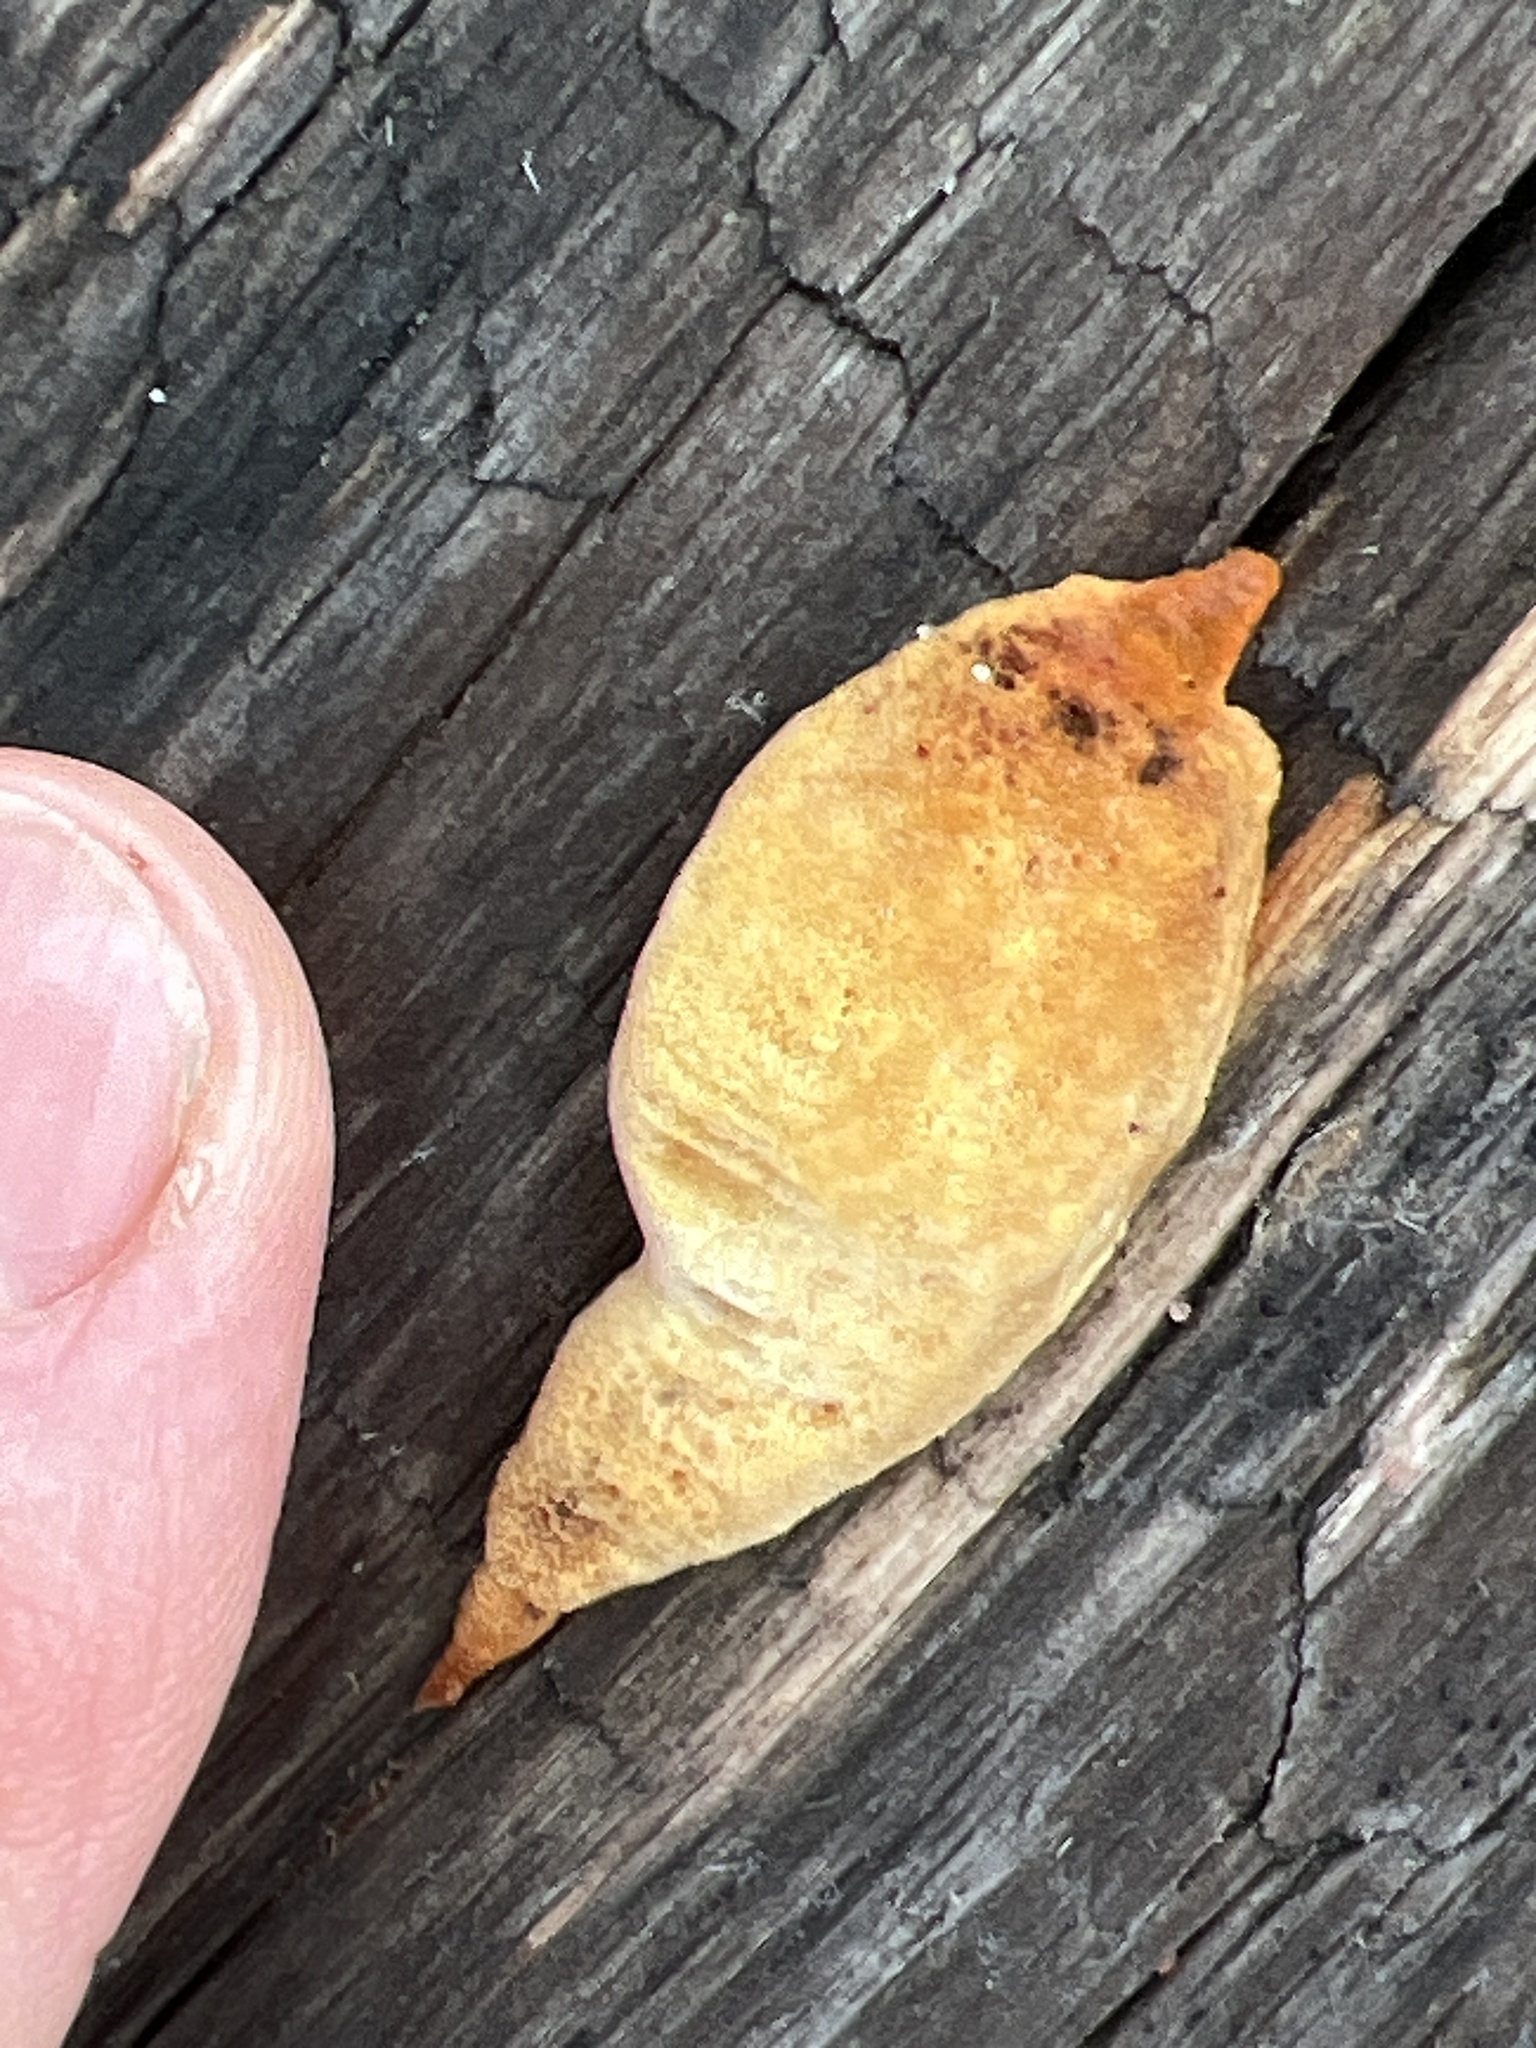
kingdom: Fungi
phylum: Basidiomycota
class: Agaricomycetes
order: Gloeophyllales
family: Gloeophyllaceae
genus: Gloeophyllum
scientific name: Gloeophyllum sepiarium
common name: Conifer mazegill
